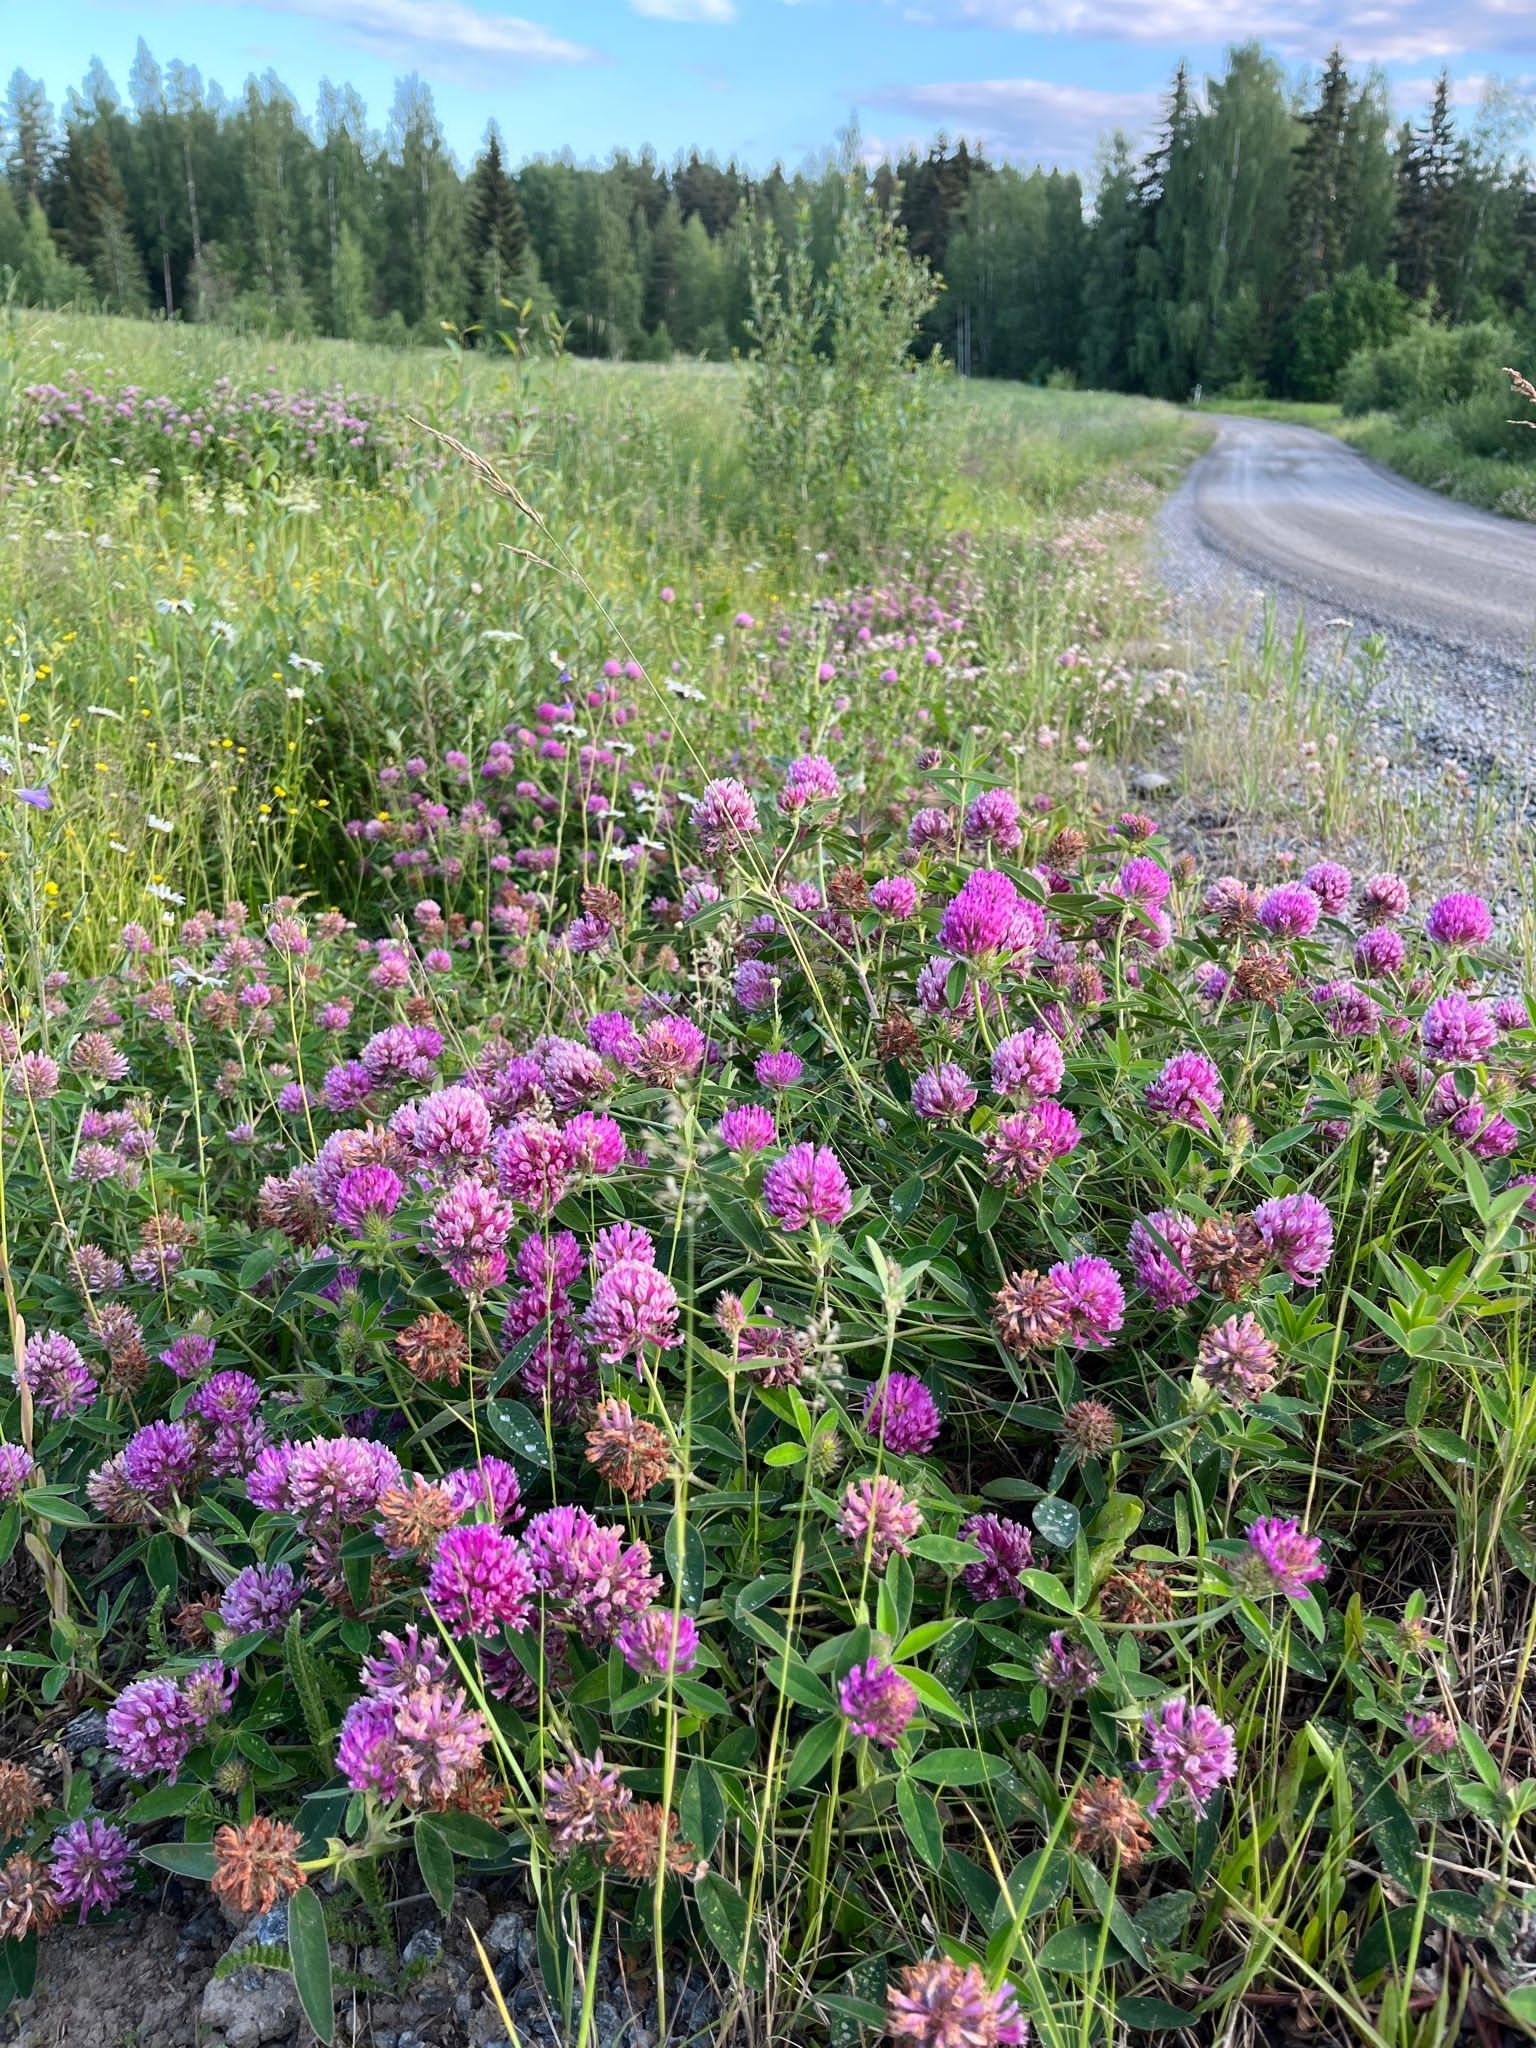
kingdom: Plantae
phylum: Tracheophyta
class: Magnoliopsida
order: Fabales
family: Fabaceae
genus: Trifolium
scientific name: Trifolium medium
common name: Zigzag clover
